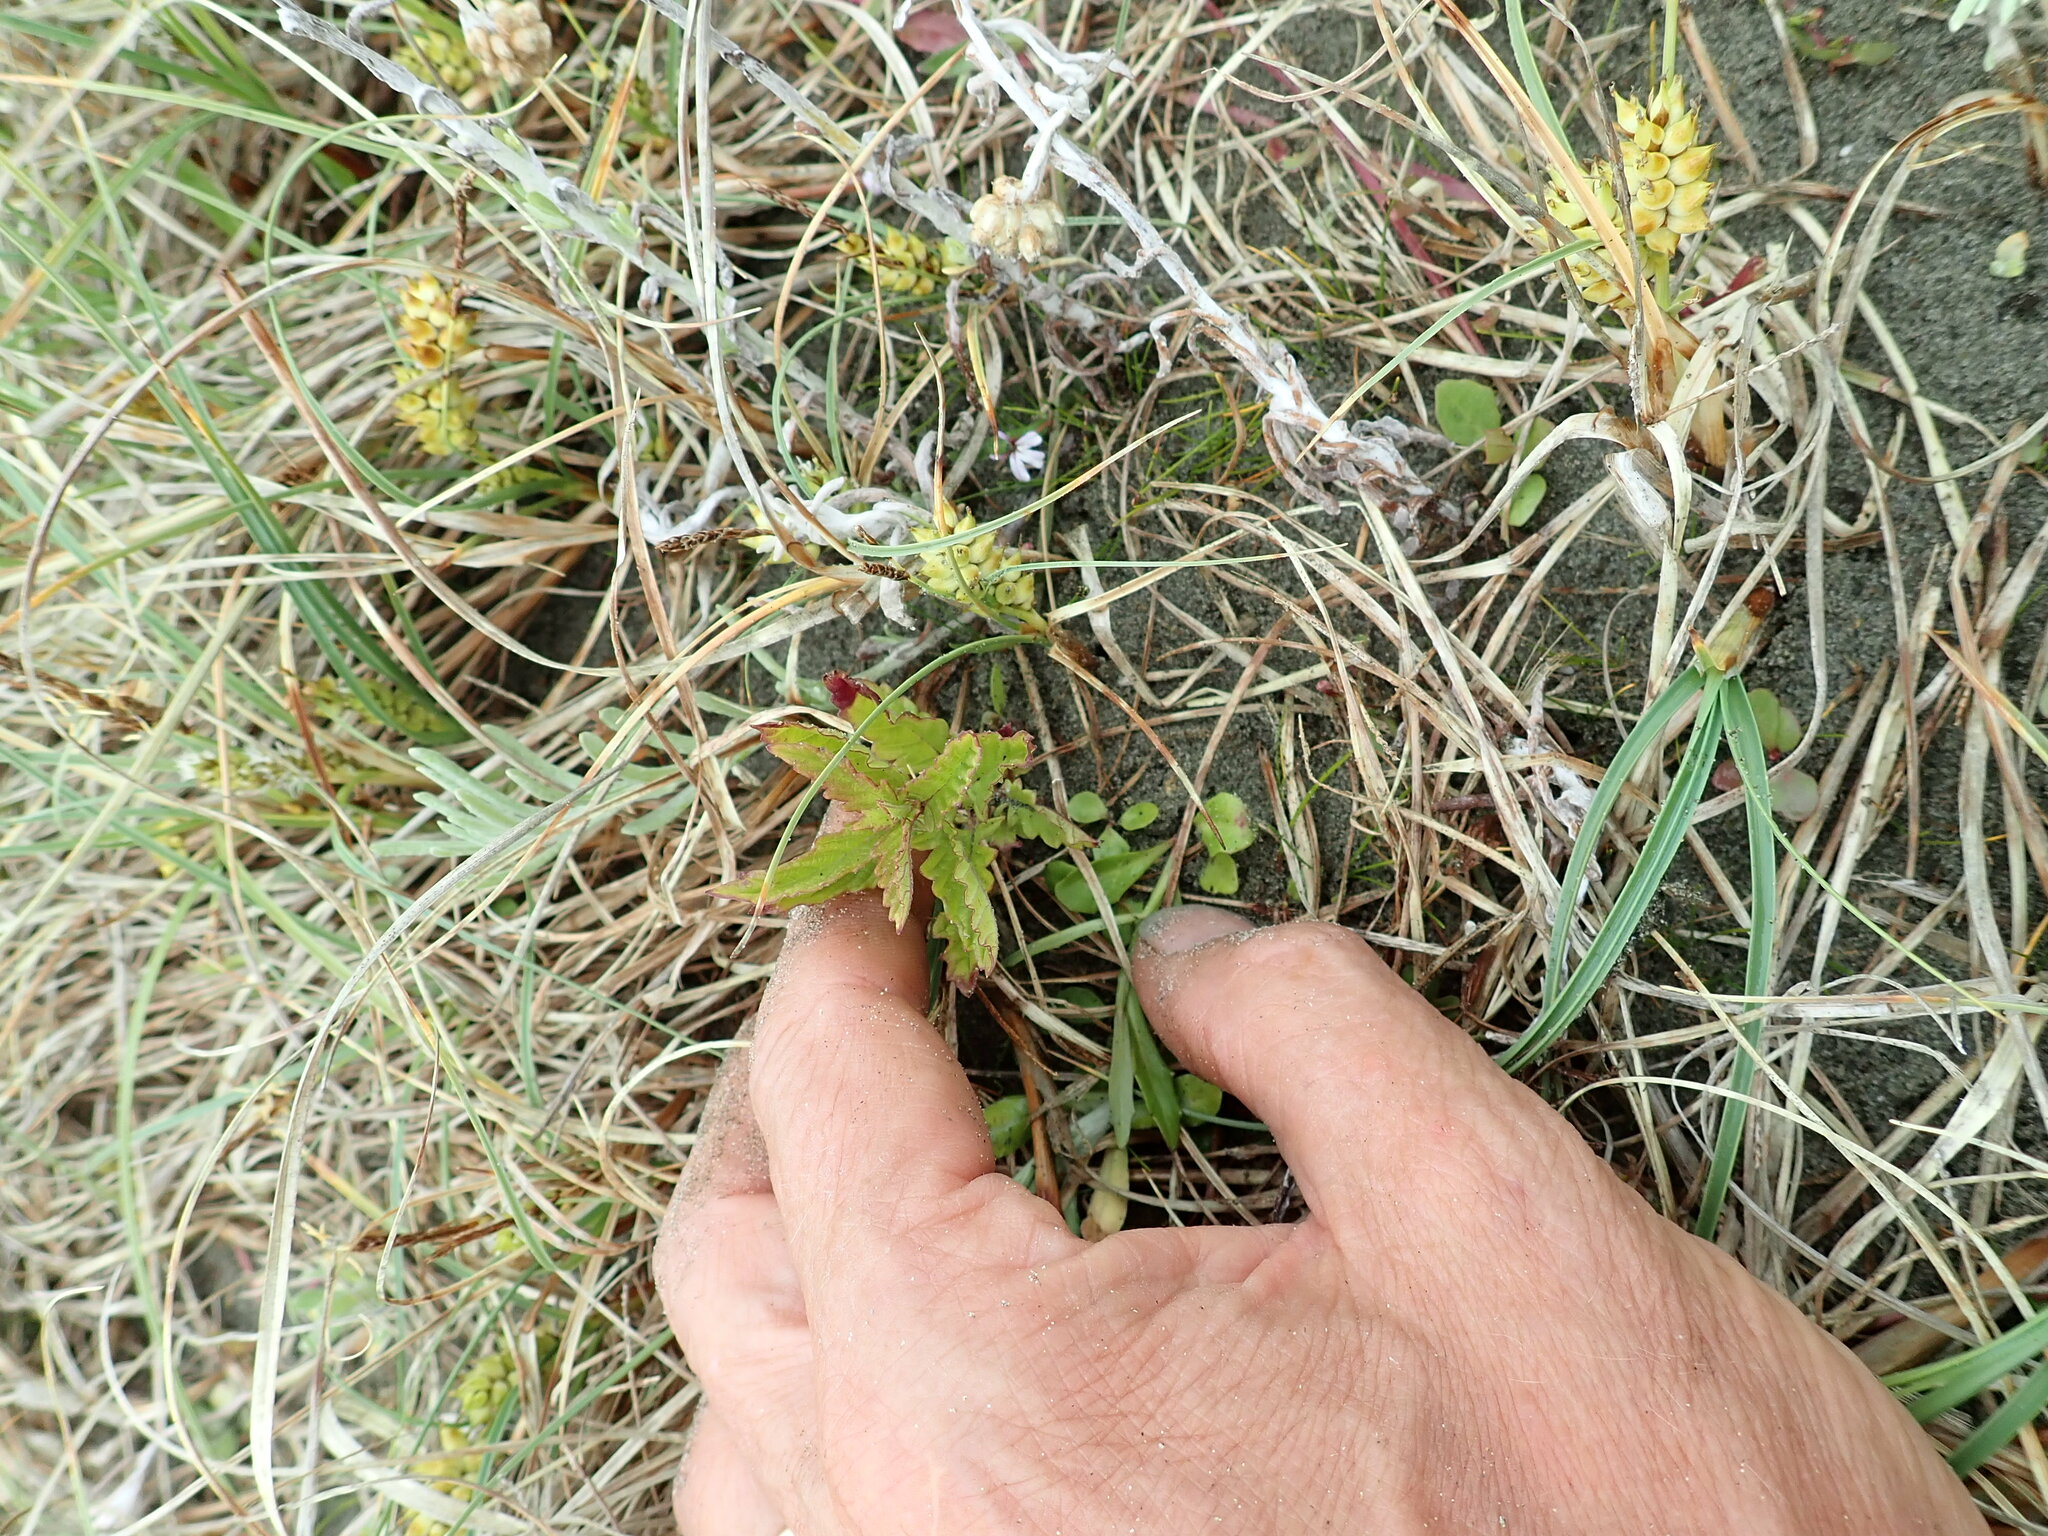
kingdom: Plantae
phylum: Tracheophyta
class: Magnoliopsida
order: Lamiales
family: Lamiaceae
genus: Lycopus
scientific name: Lycopus europaeus
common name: European bugleweed
